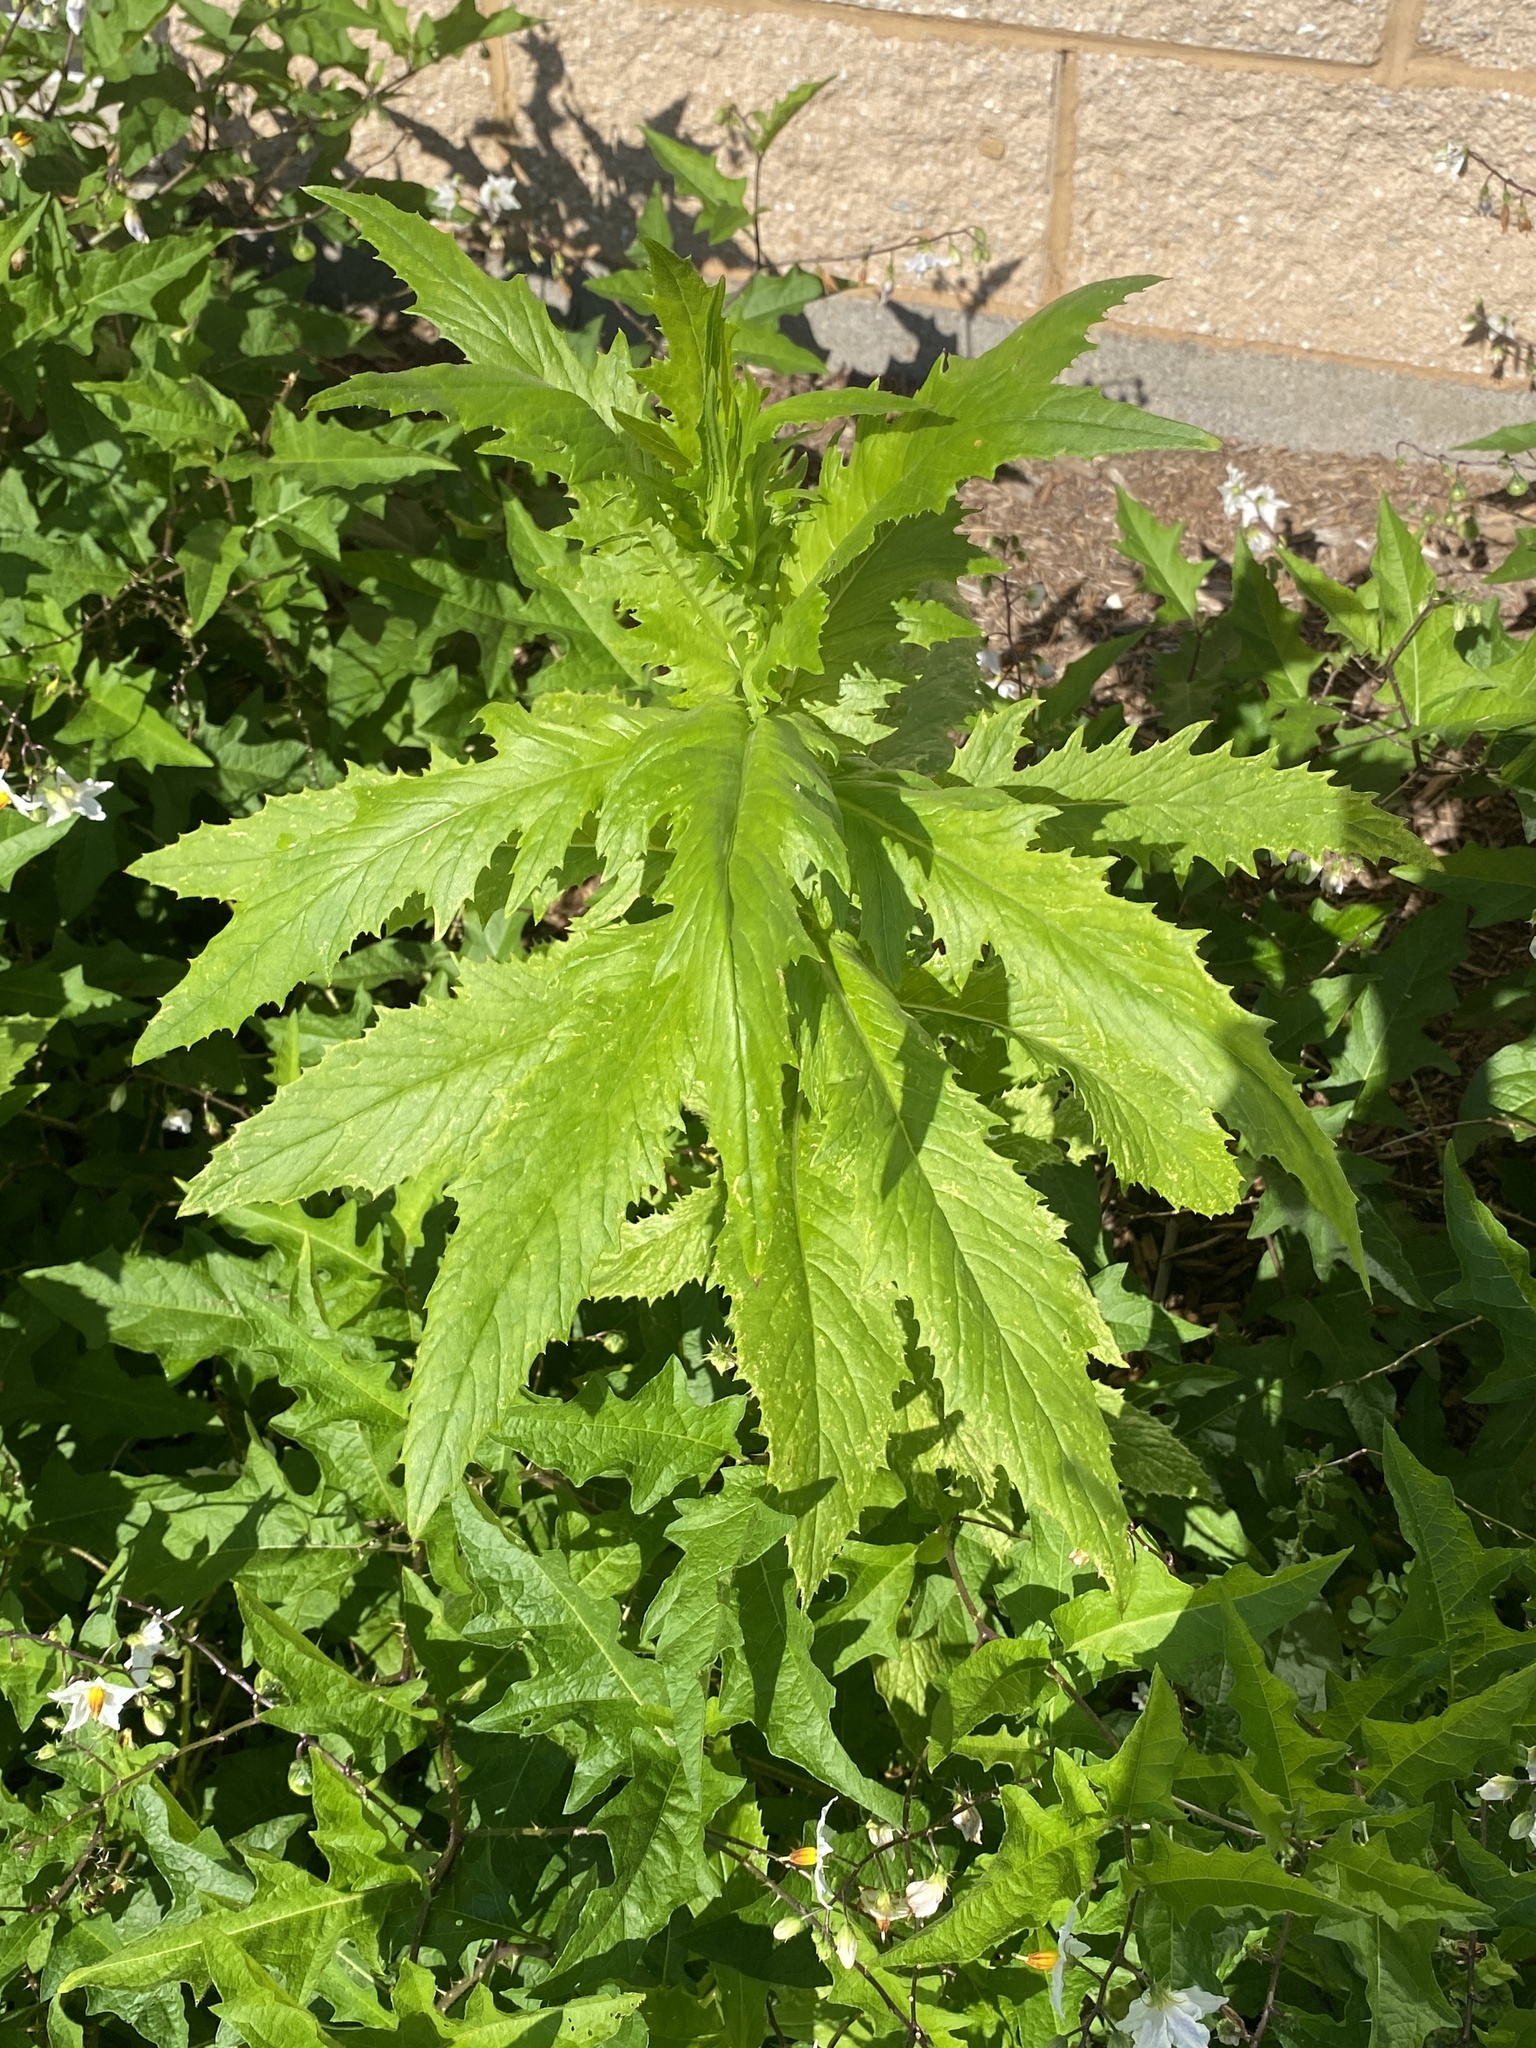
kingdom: Plantae
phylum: Tracheophyta
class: Magnoliopsida
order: Asterales
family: Asteraceae
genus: Erechtites
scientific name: Erechtites hieraciifolius
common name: American burnweed
